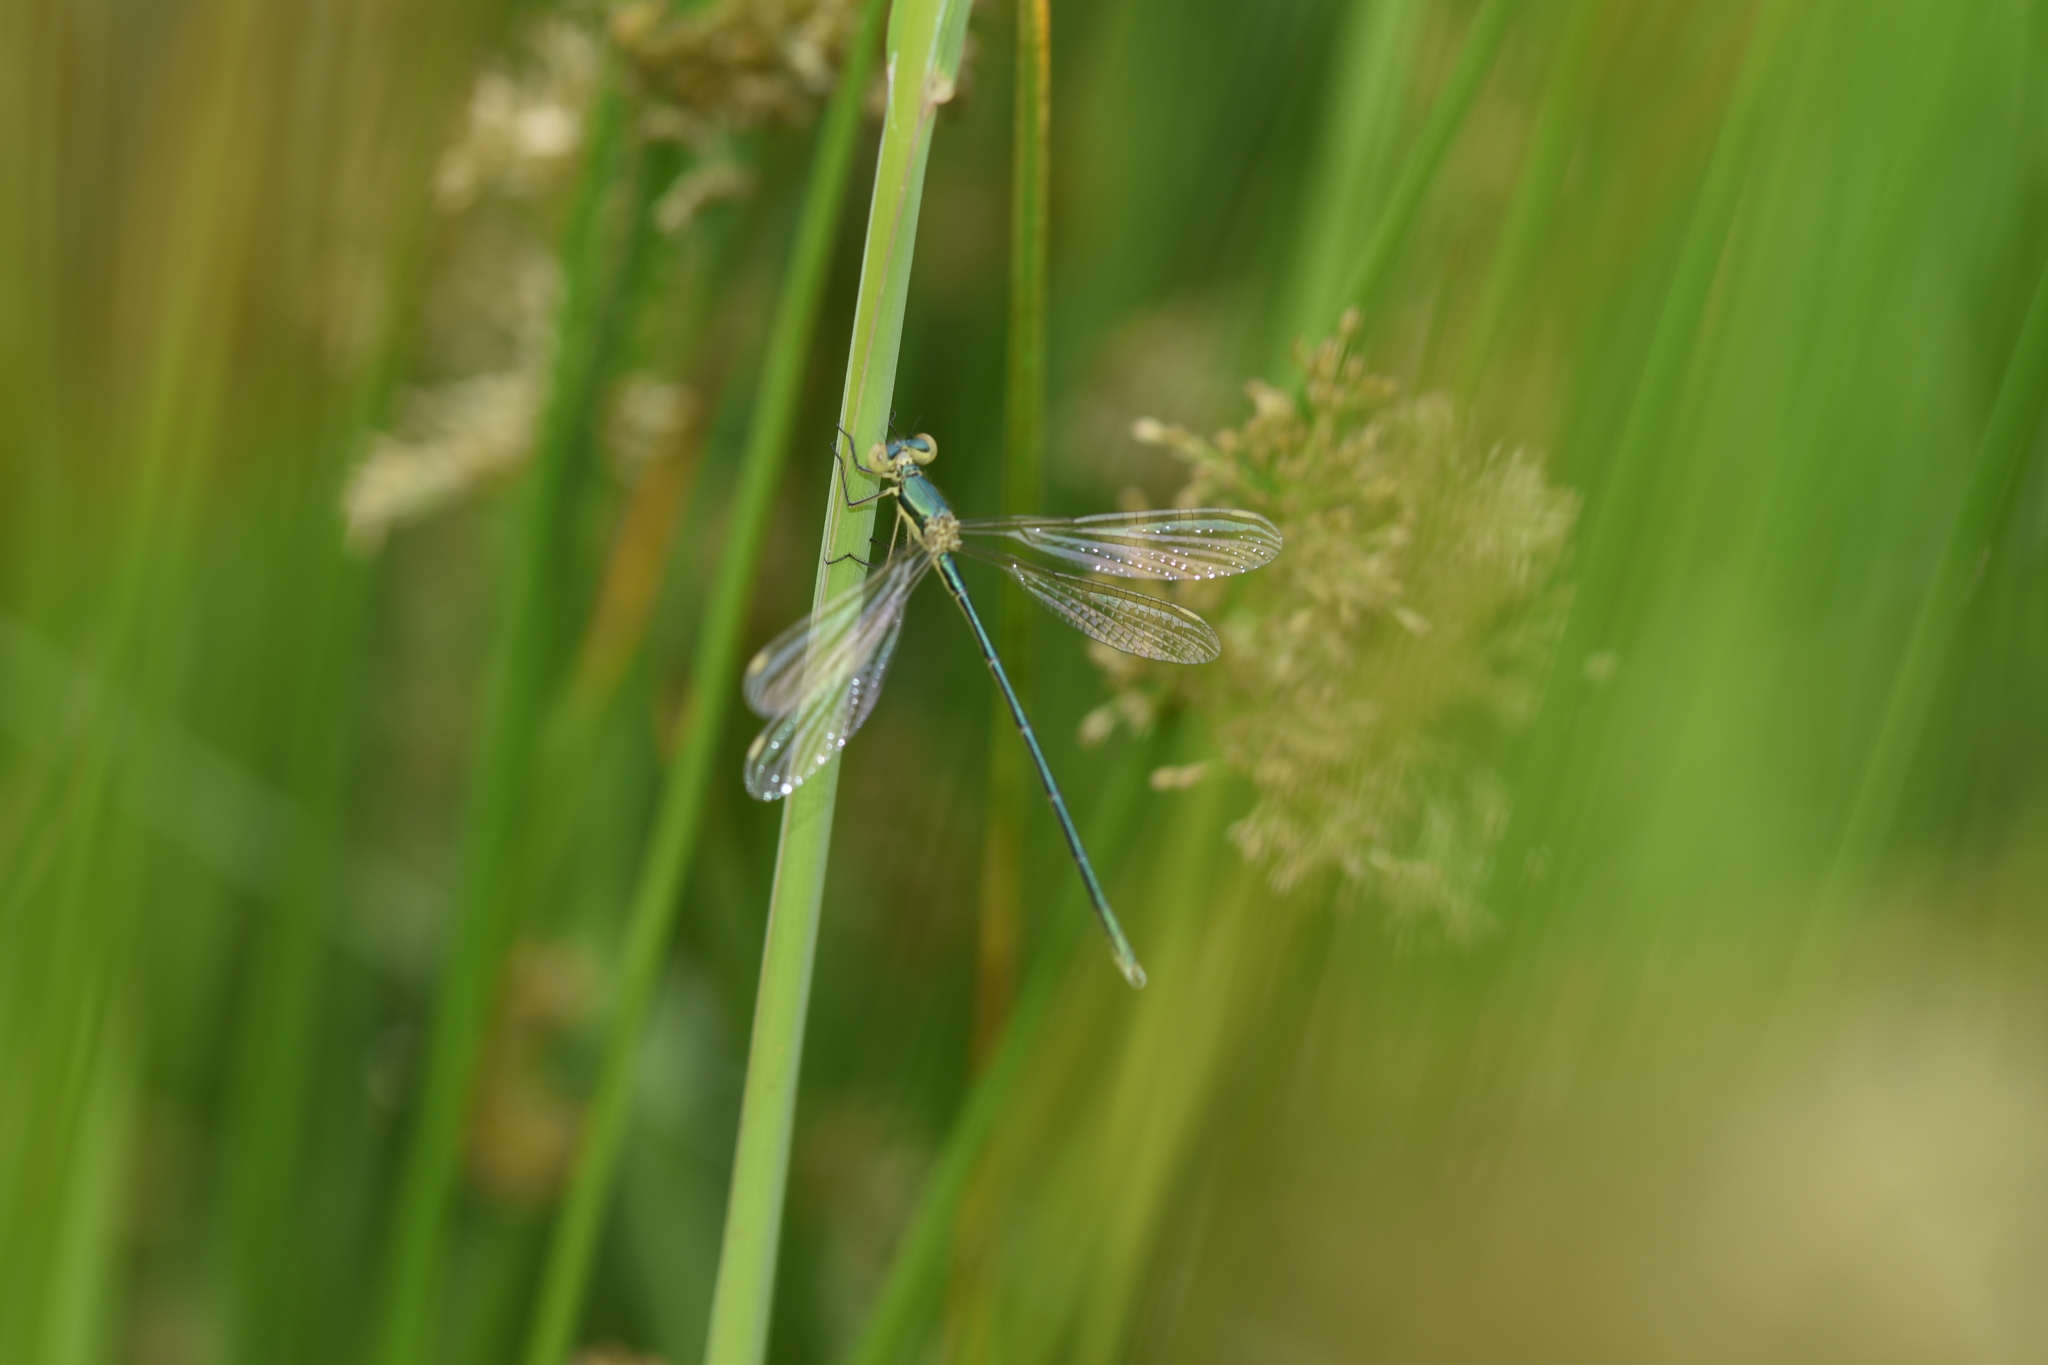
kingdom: Animalia
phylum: Arthropoda
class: Insecta
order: Odonata
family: Lestidae
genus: Lestes
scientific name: Lestes virens
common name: Small emerald spreadwing
